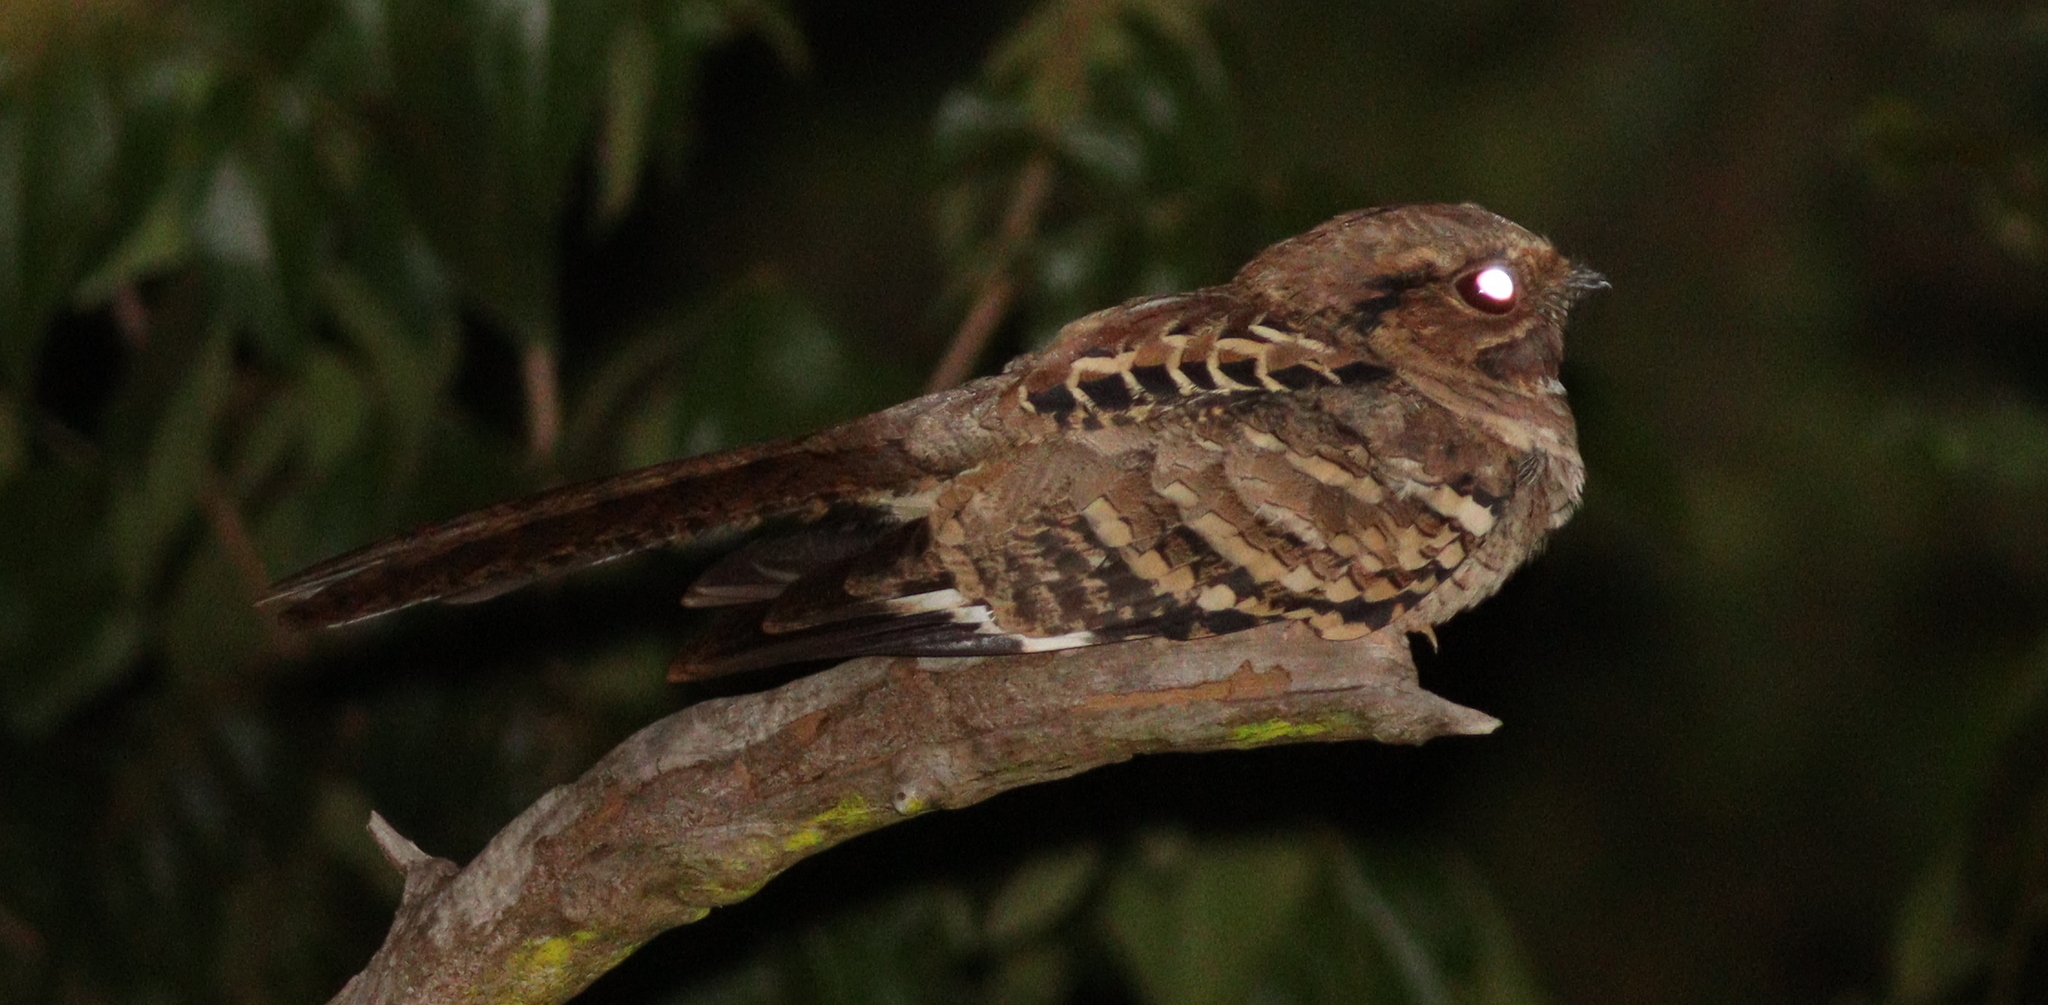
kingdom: Animalia
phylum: Chordata
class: Aves
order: Caprimulgiformes
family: Caprimulgidae
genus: Nyctidromus
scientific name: Nyctidromus albicollis
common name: Pauraque
